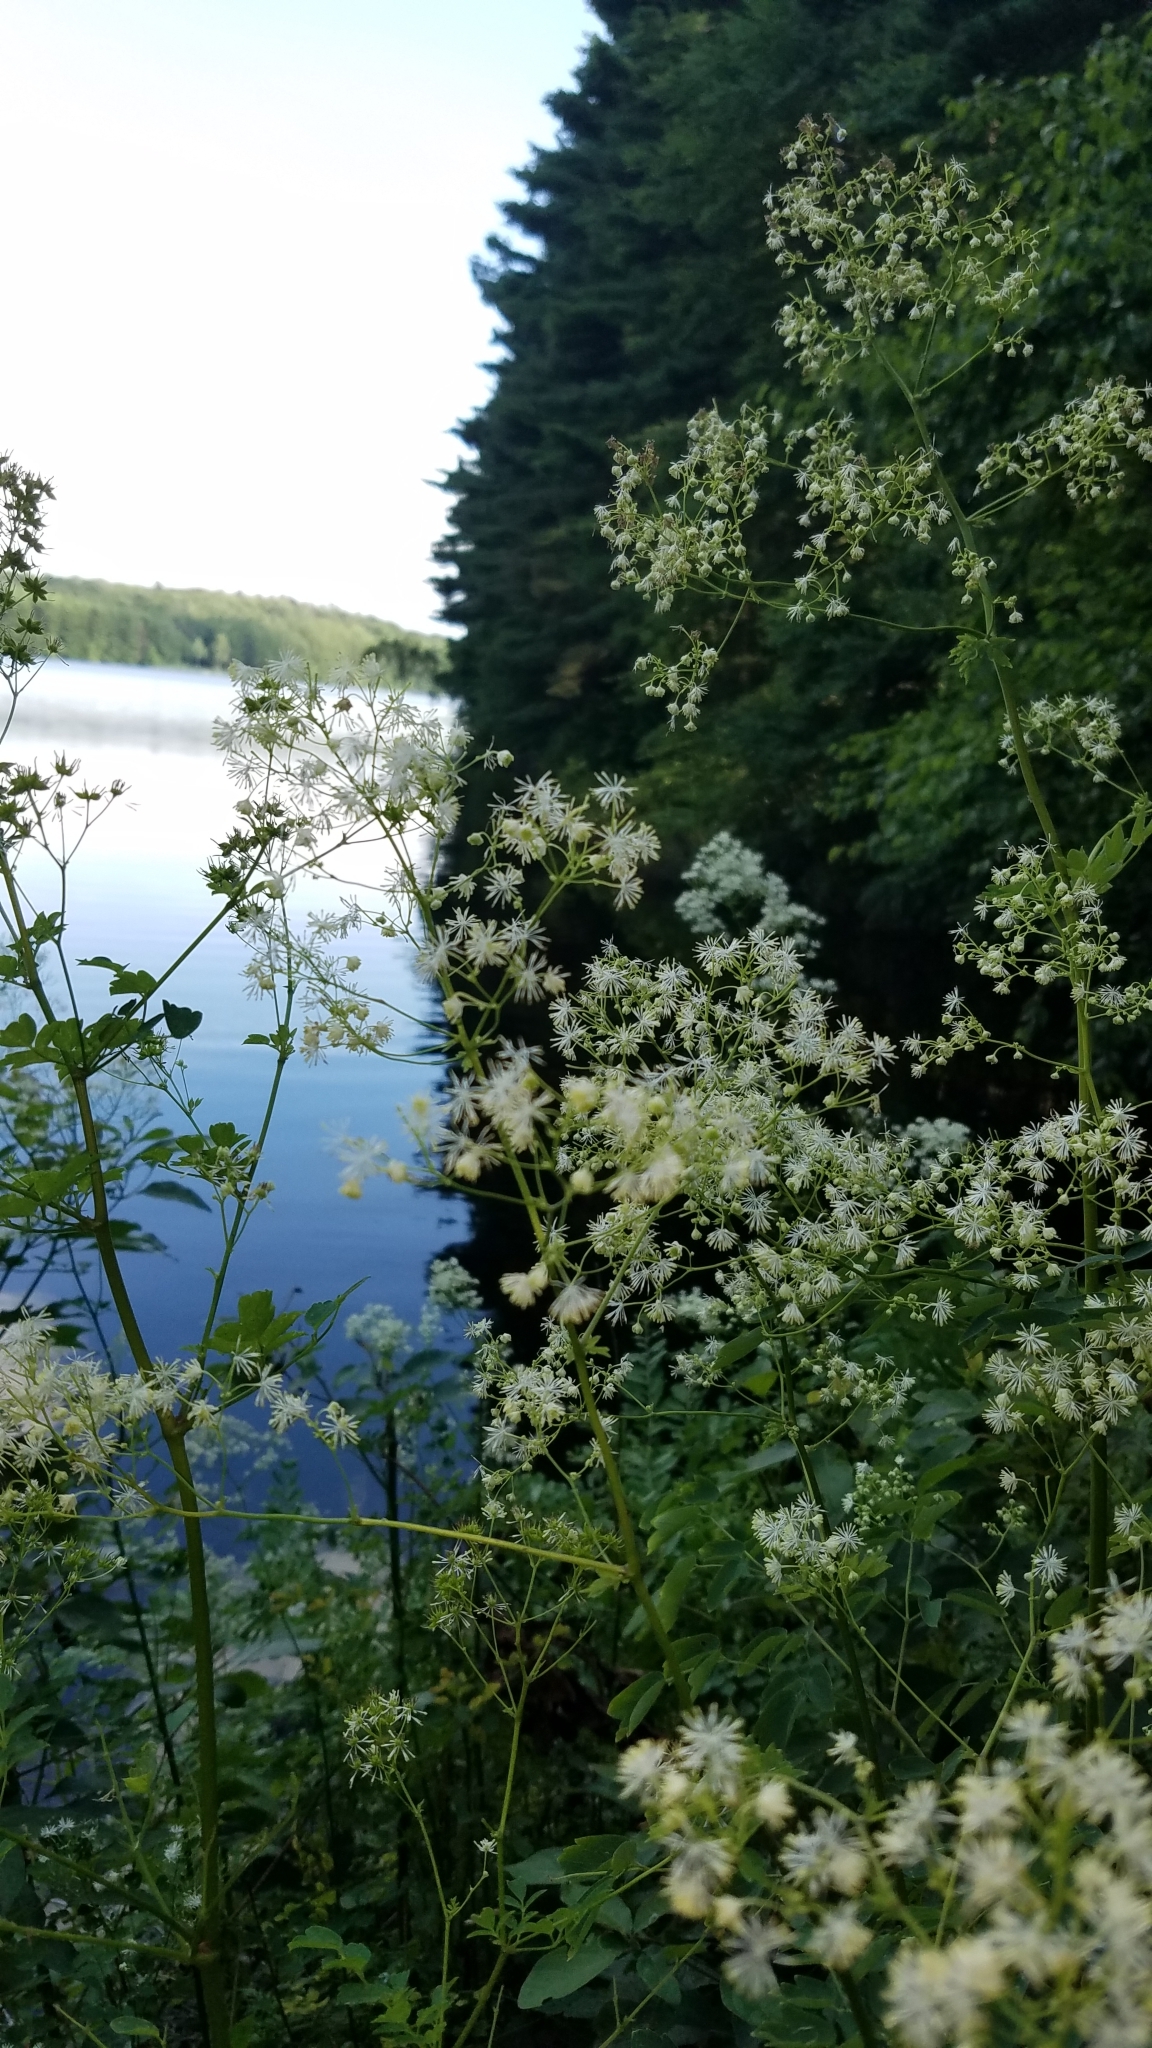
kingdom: Plantae
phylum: Tracheophyta
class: Magnoliopsida
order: Ranunculales
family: Ranunculaceae
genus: Thalictrum
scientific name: Thalictrum pubescens
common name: King-of-the-meadow
